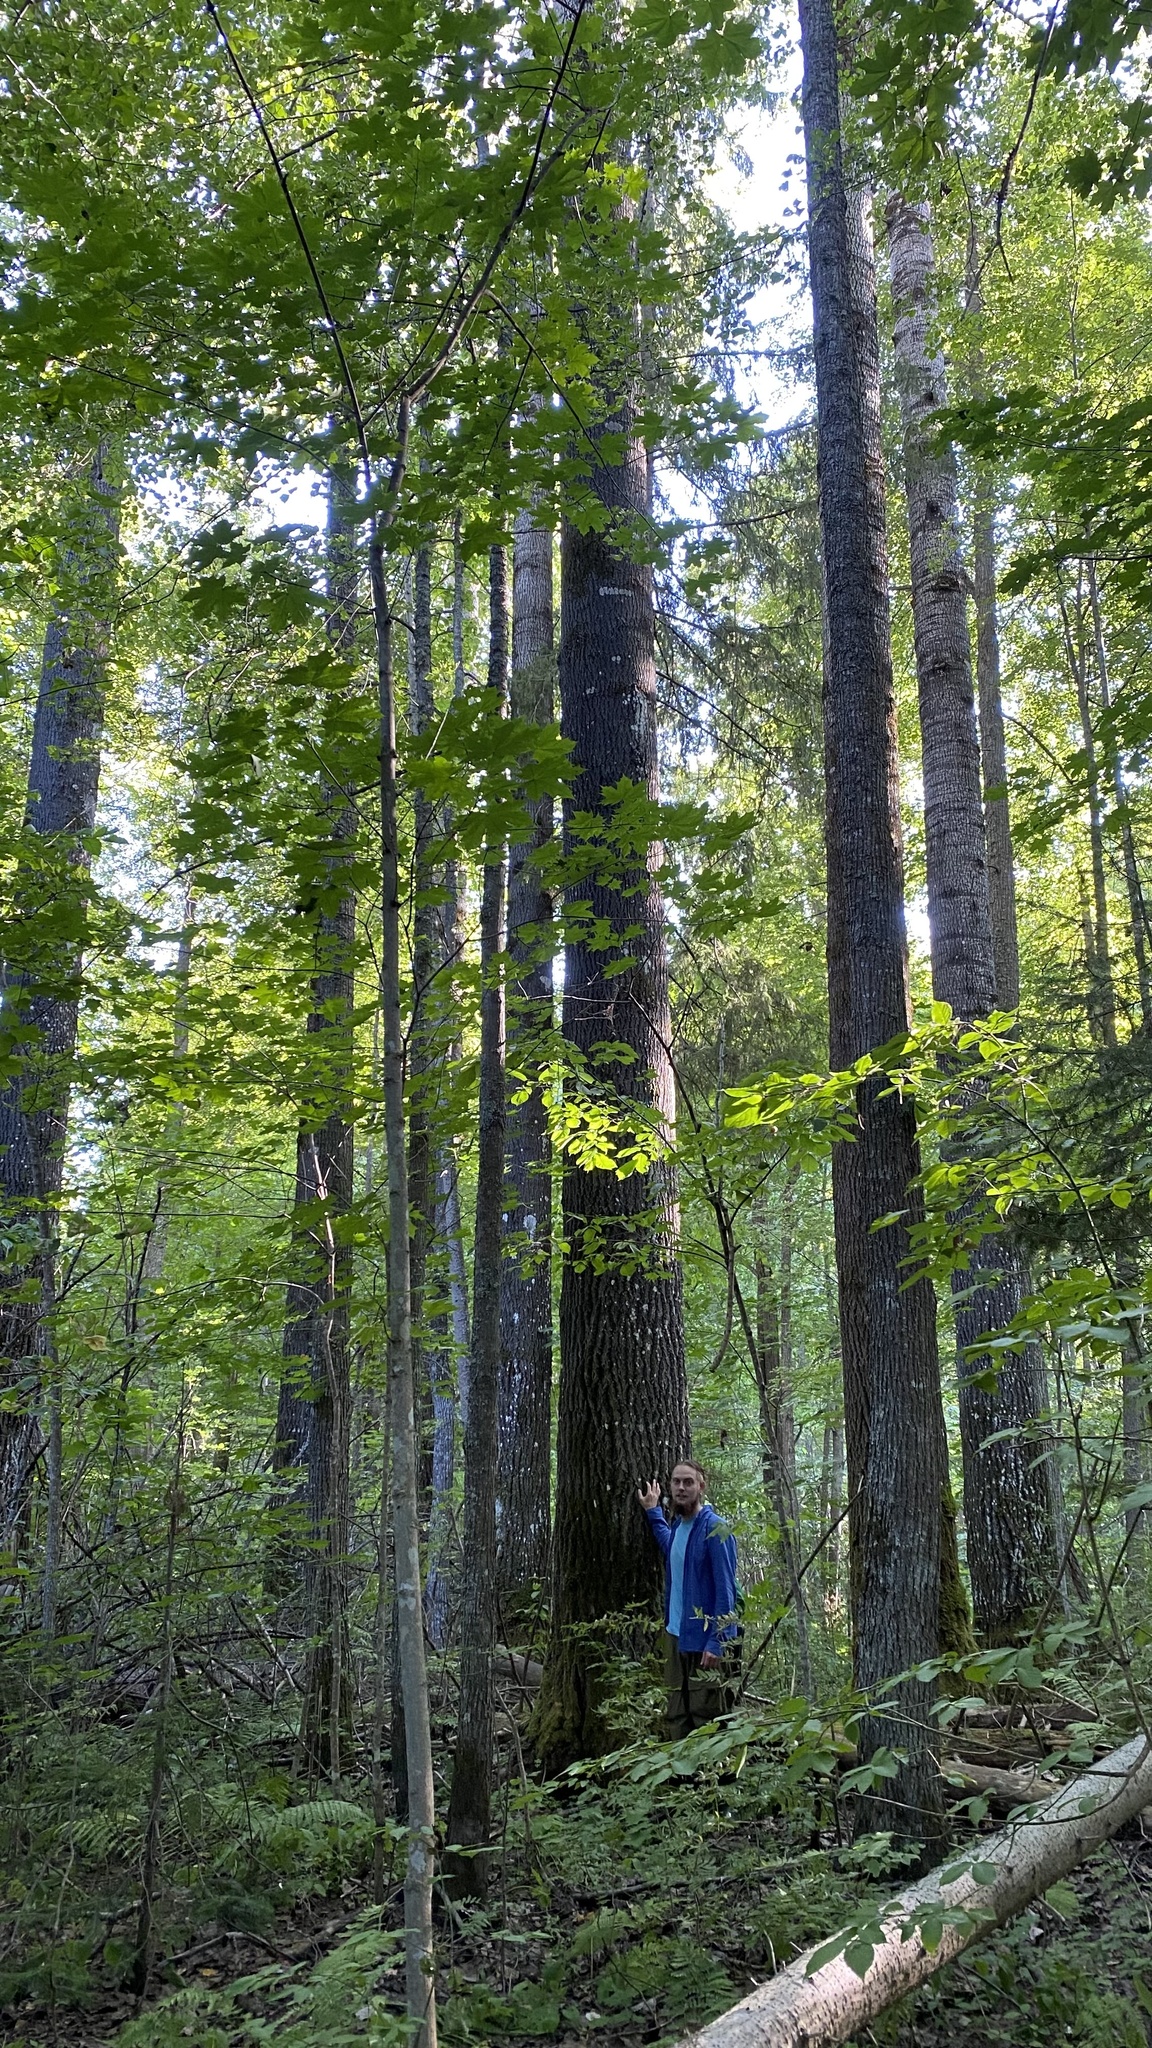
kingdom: Plantae
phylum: Tracheophyta
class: Magnoliopsida
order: Malpighiales
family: Salicaceae
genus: Populus
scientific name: Populus tremula
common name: European aspen
